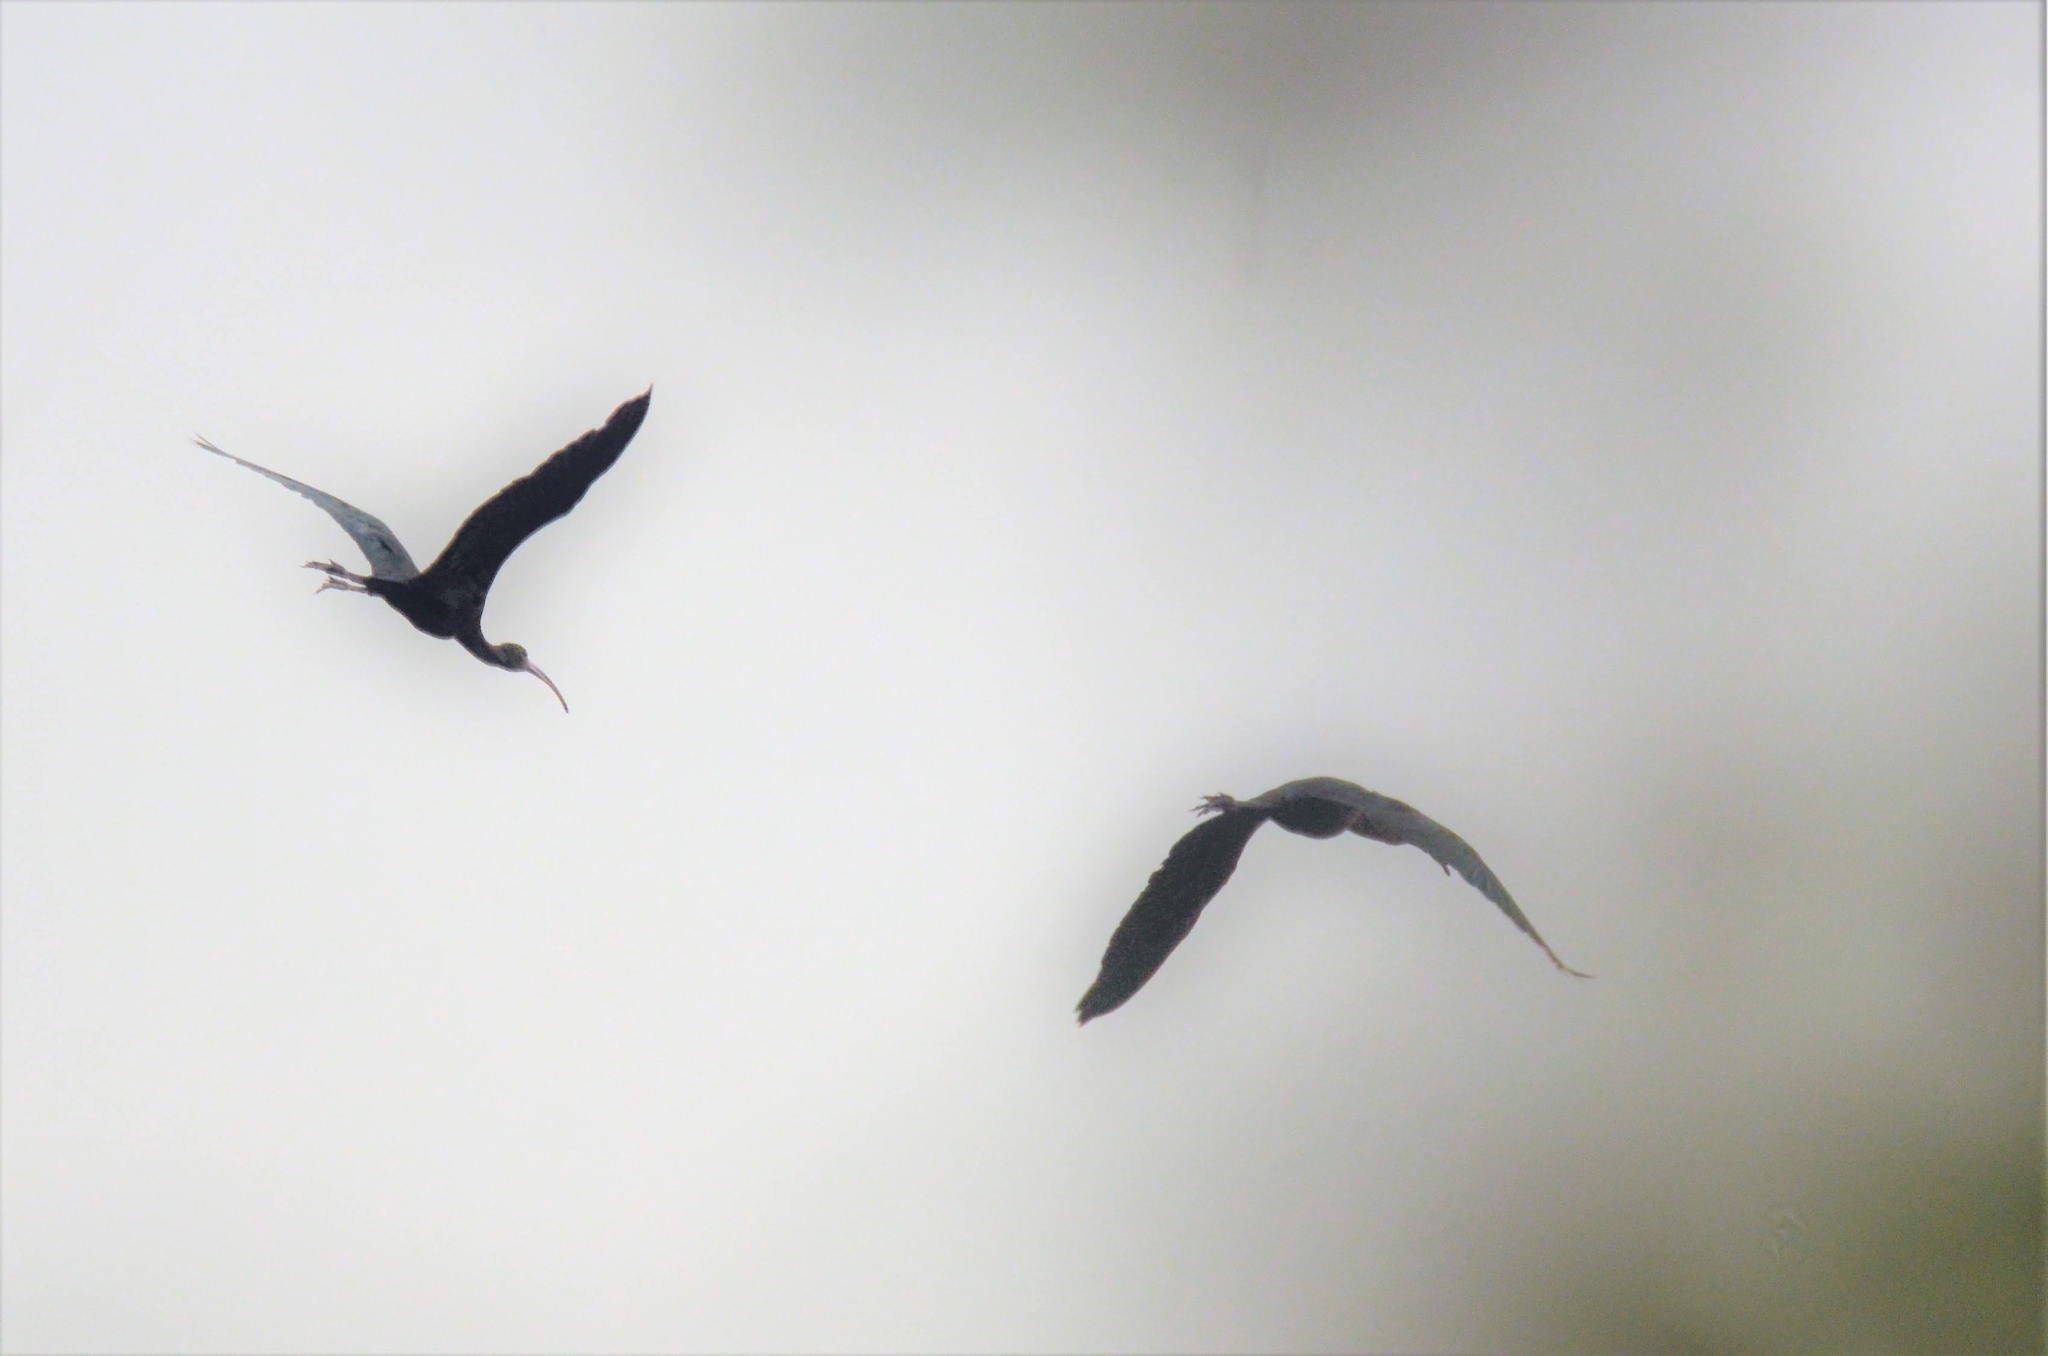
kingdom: Animalia
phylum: Chordata
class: Aves
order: Pelecaniformes
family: Threskiornithidae
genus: Plegadis
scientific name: Plegadis falcinellus
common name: Glossy ibis
